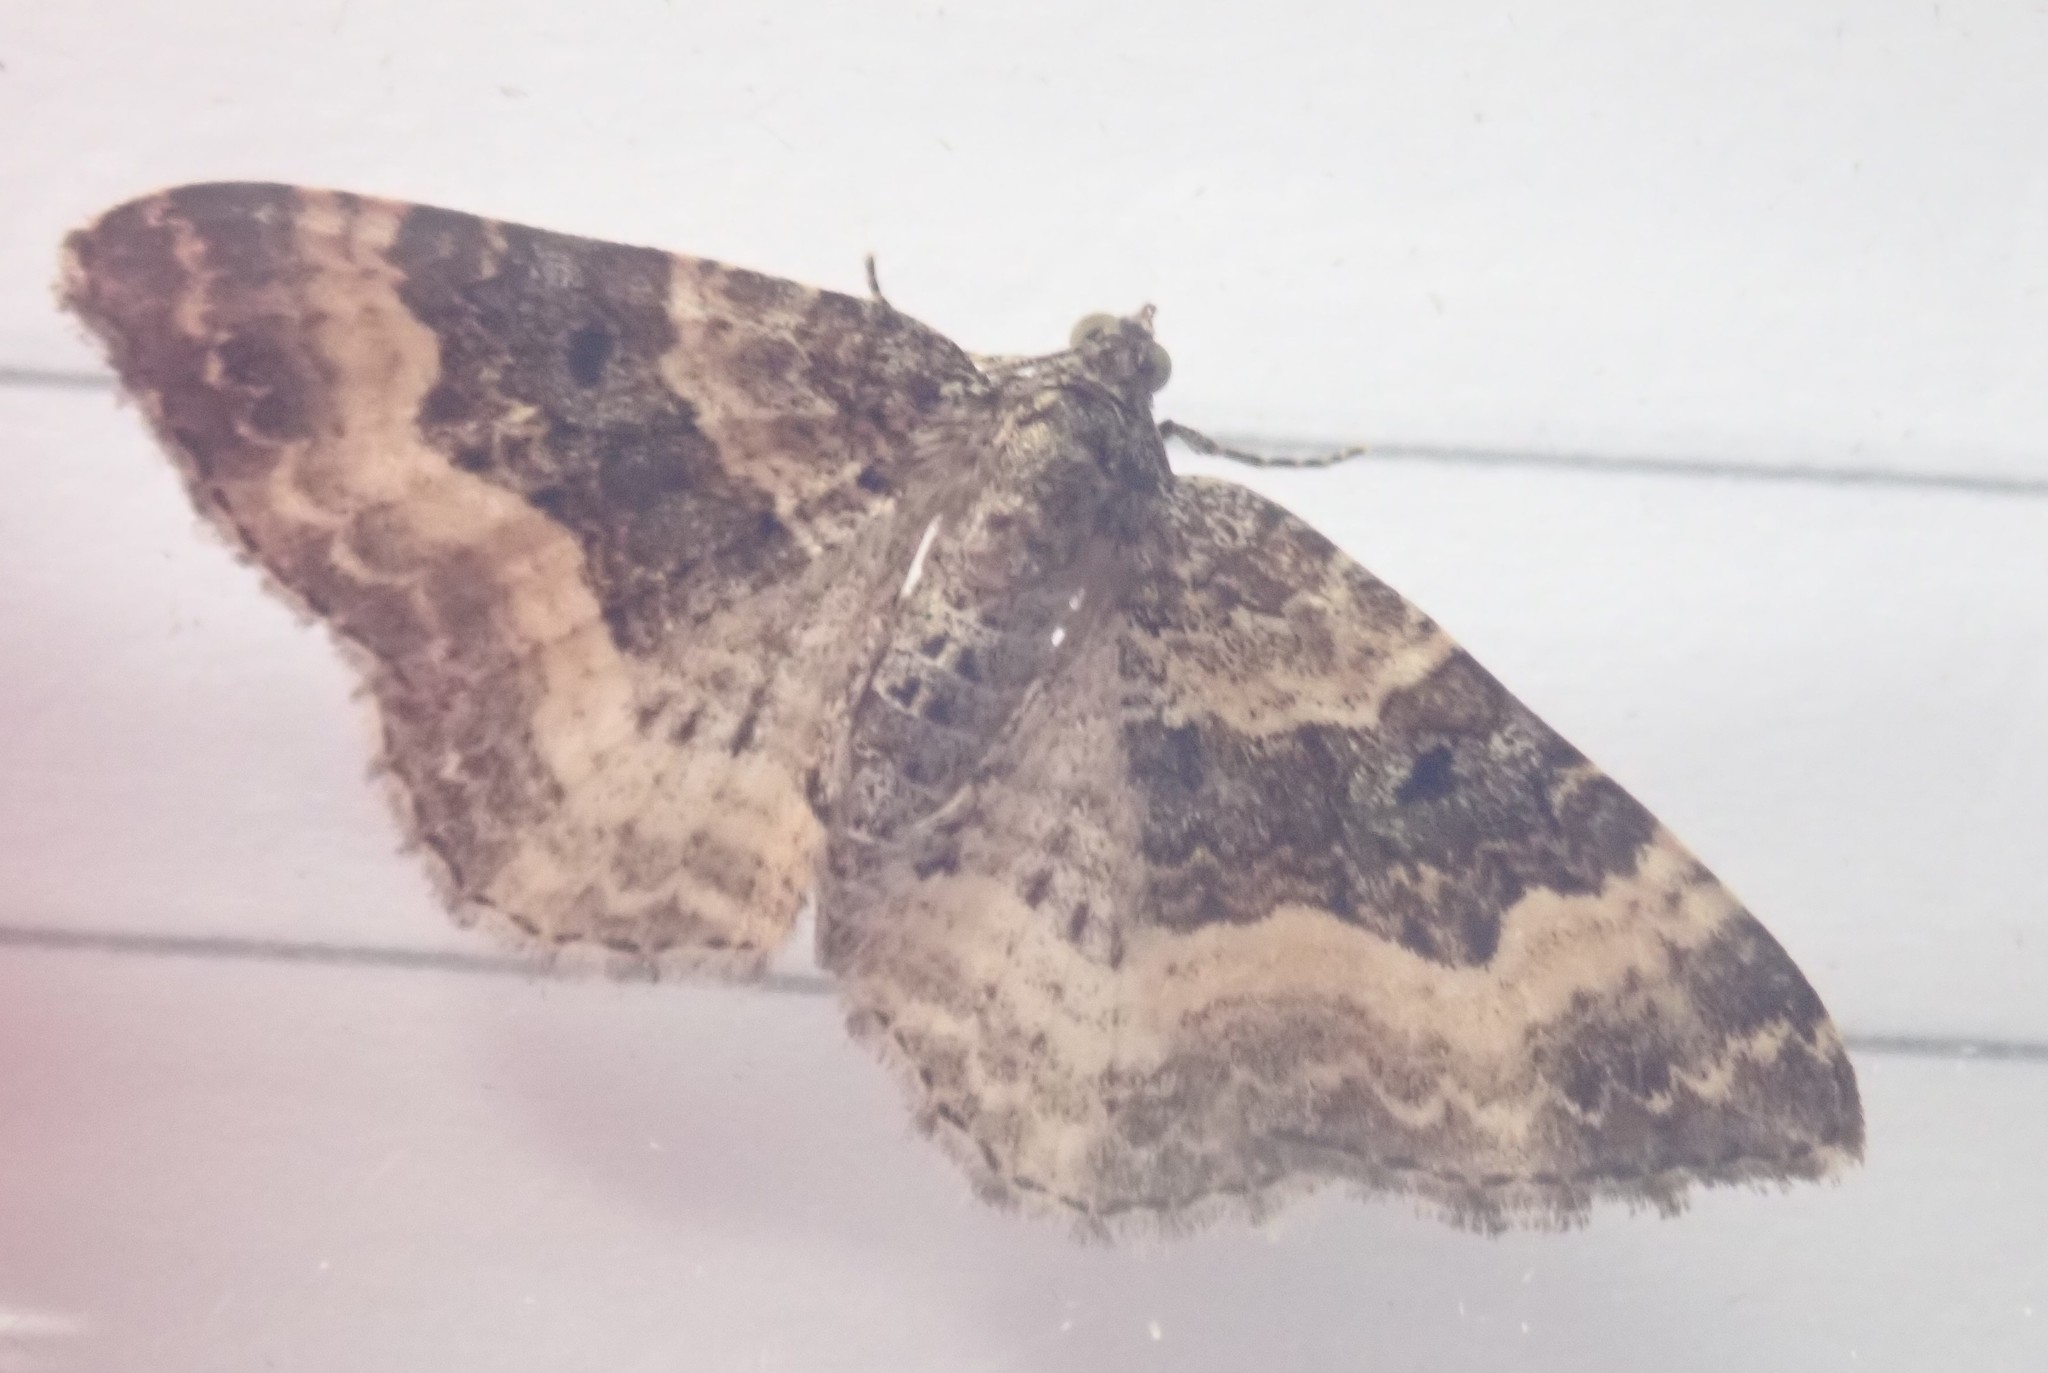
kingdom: Animalia
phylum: Arthropoda
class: Insecta
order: Lepidoptera
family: Geometridae
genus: Epirrhoe
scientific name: Epirrhoe alternata
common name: Common carpet
